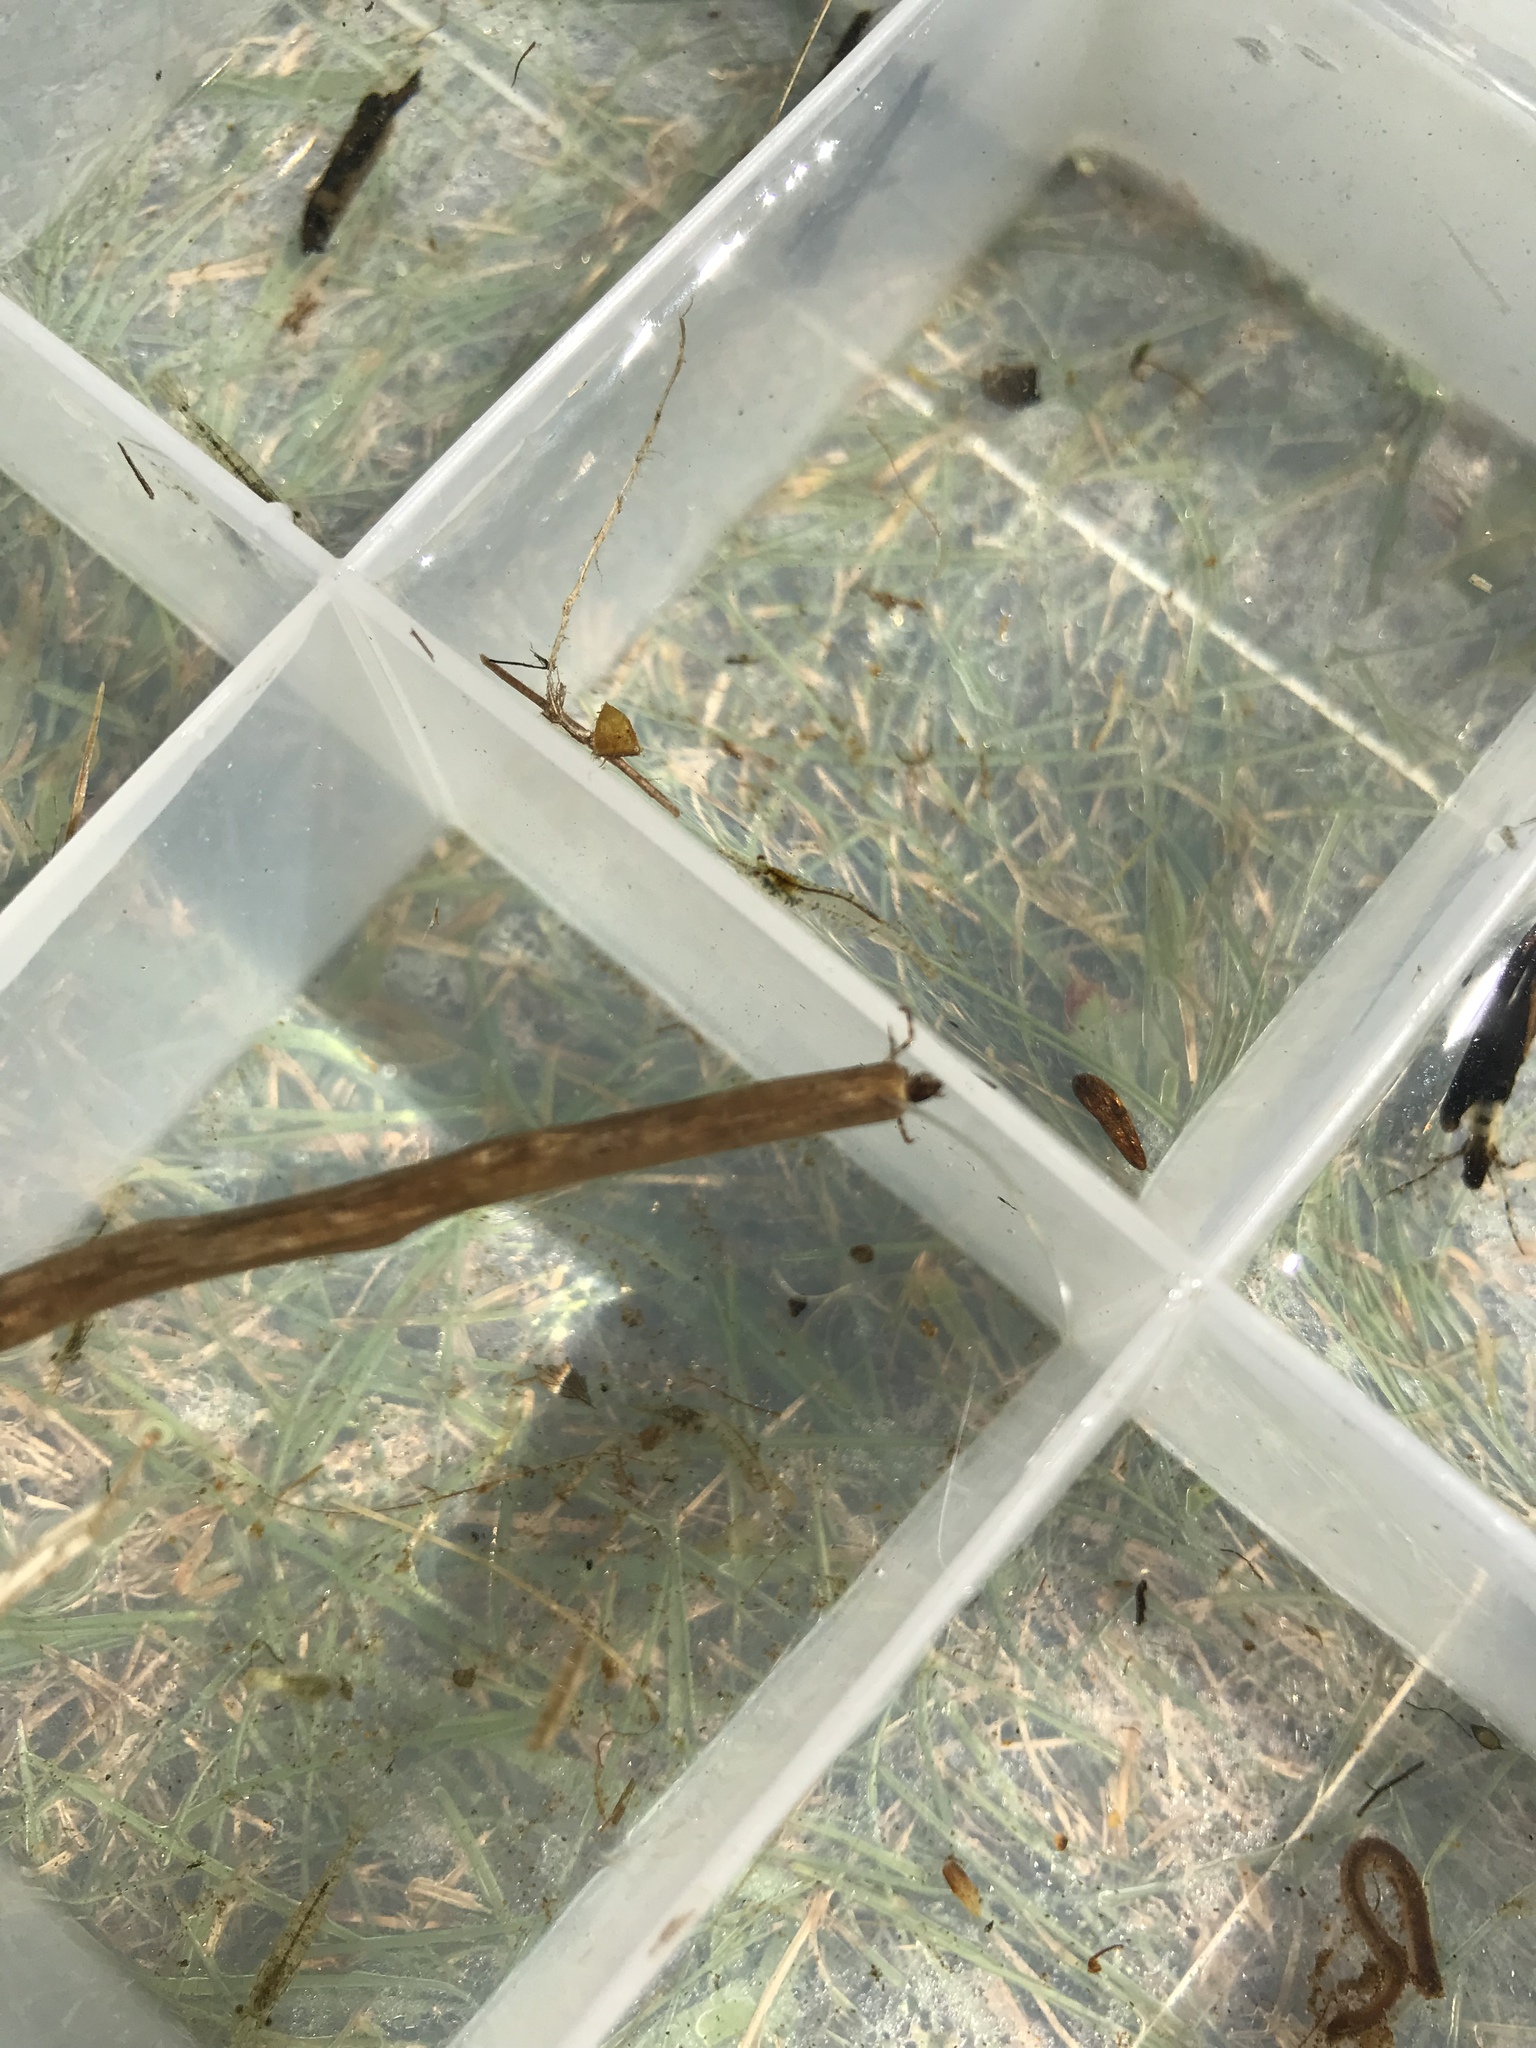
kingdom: Animalia
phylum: Arthropoda
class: Insecta
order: Trichoptera
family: Leptoceridae
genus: Triplectides
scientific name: Triplectides
